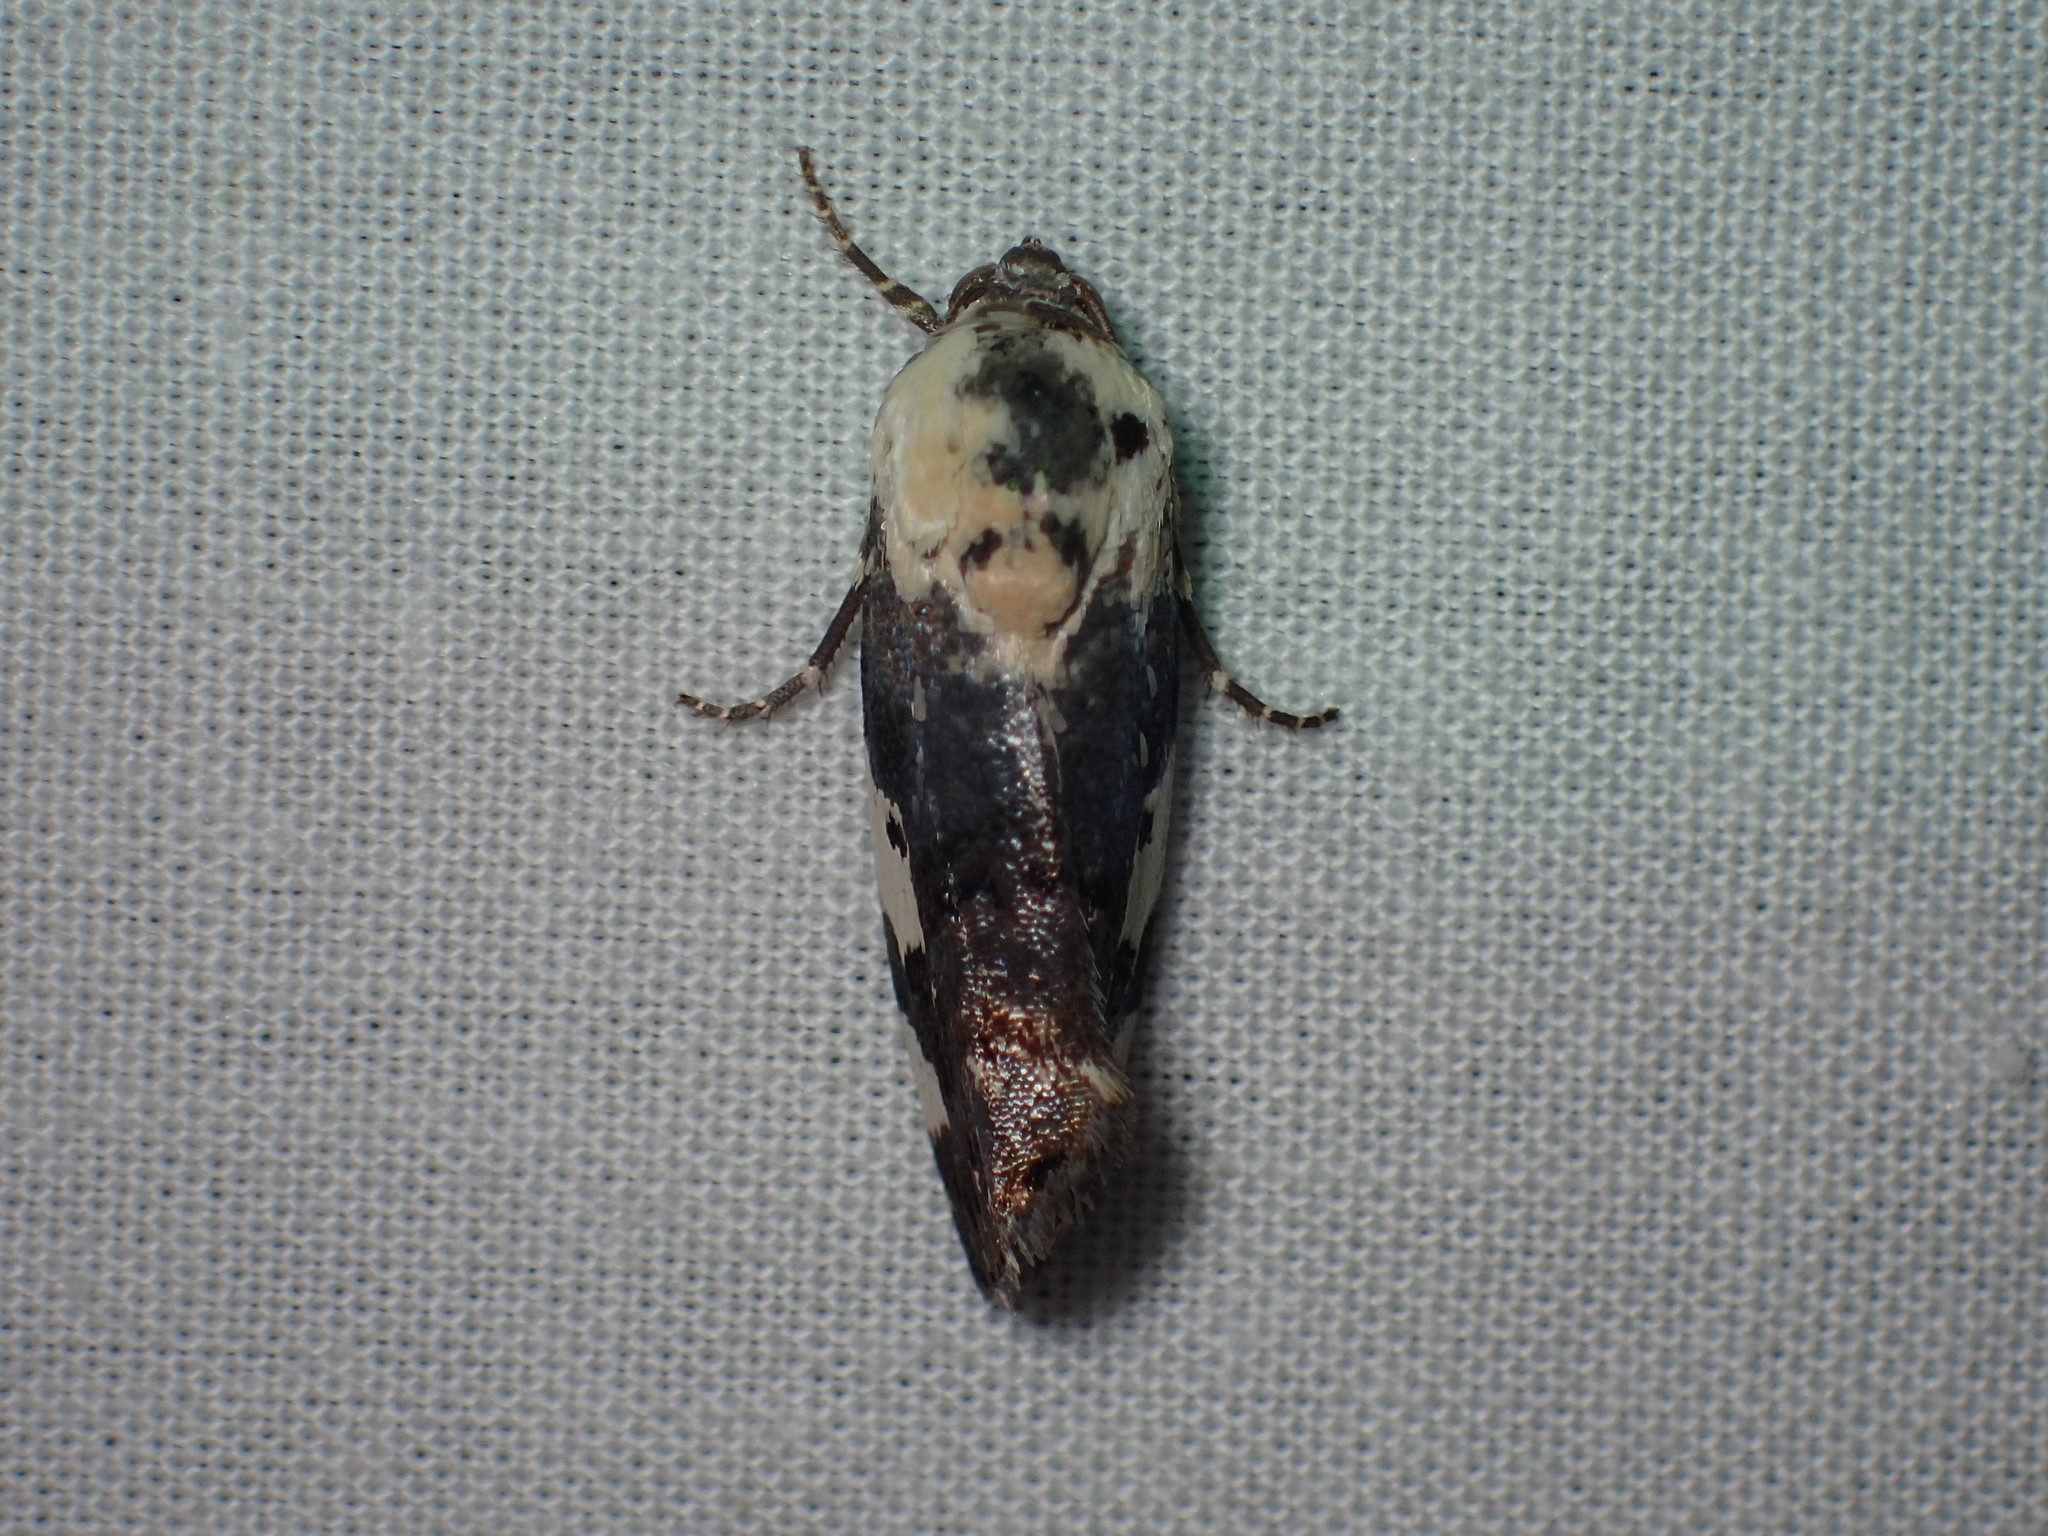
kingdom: Animalia
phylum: Arthropoda
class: Insecta
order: Lepidoptera
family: Noctuidae
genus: Acontia
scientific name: Acontia aprica
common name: Nun
